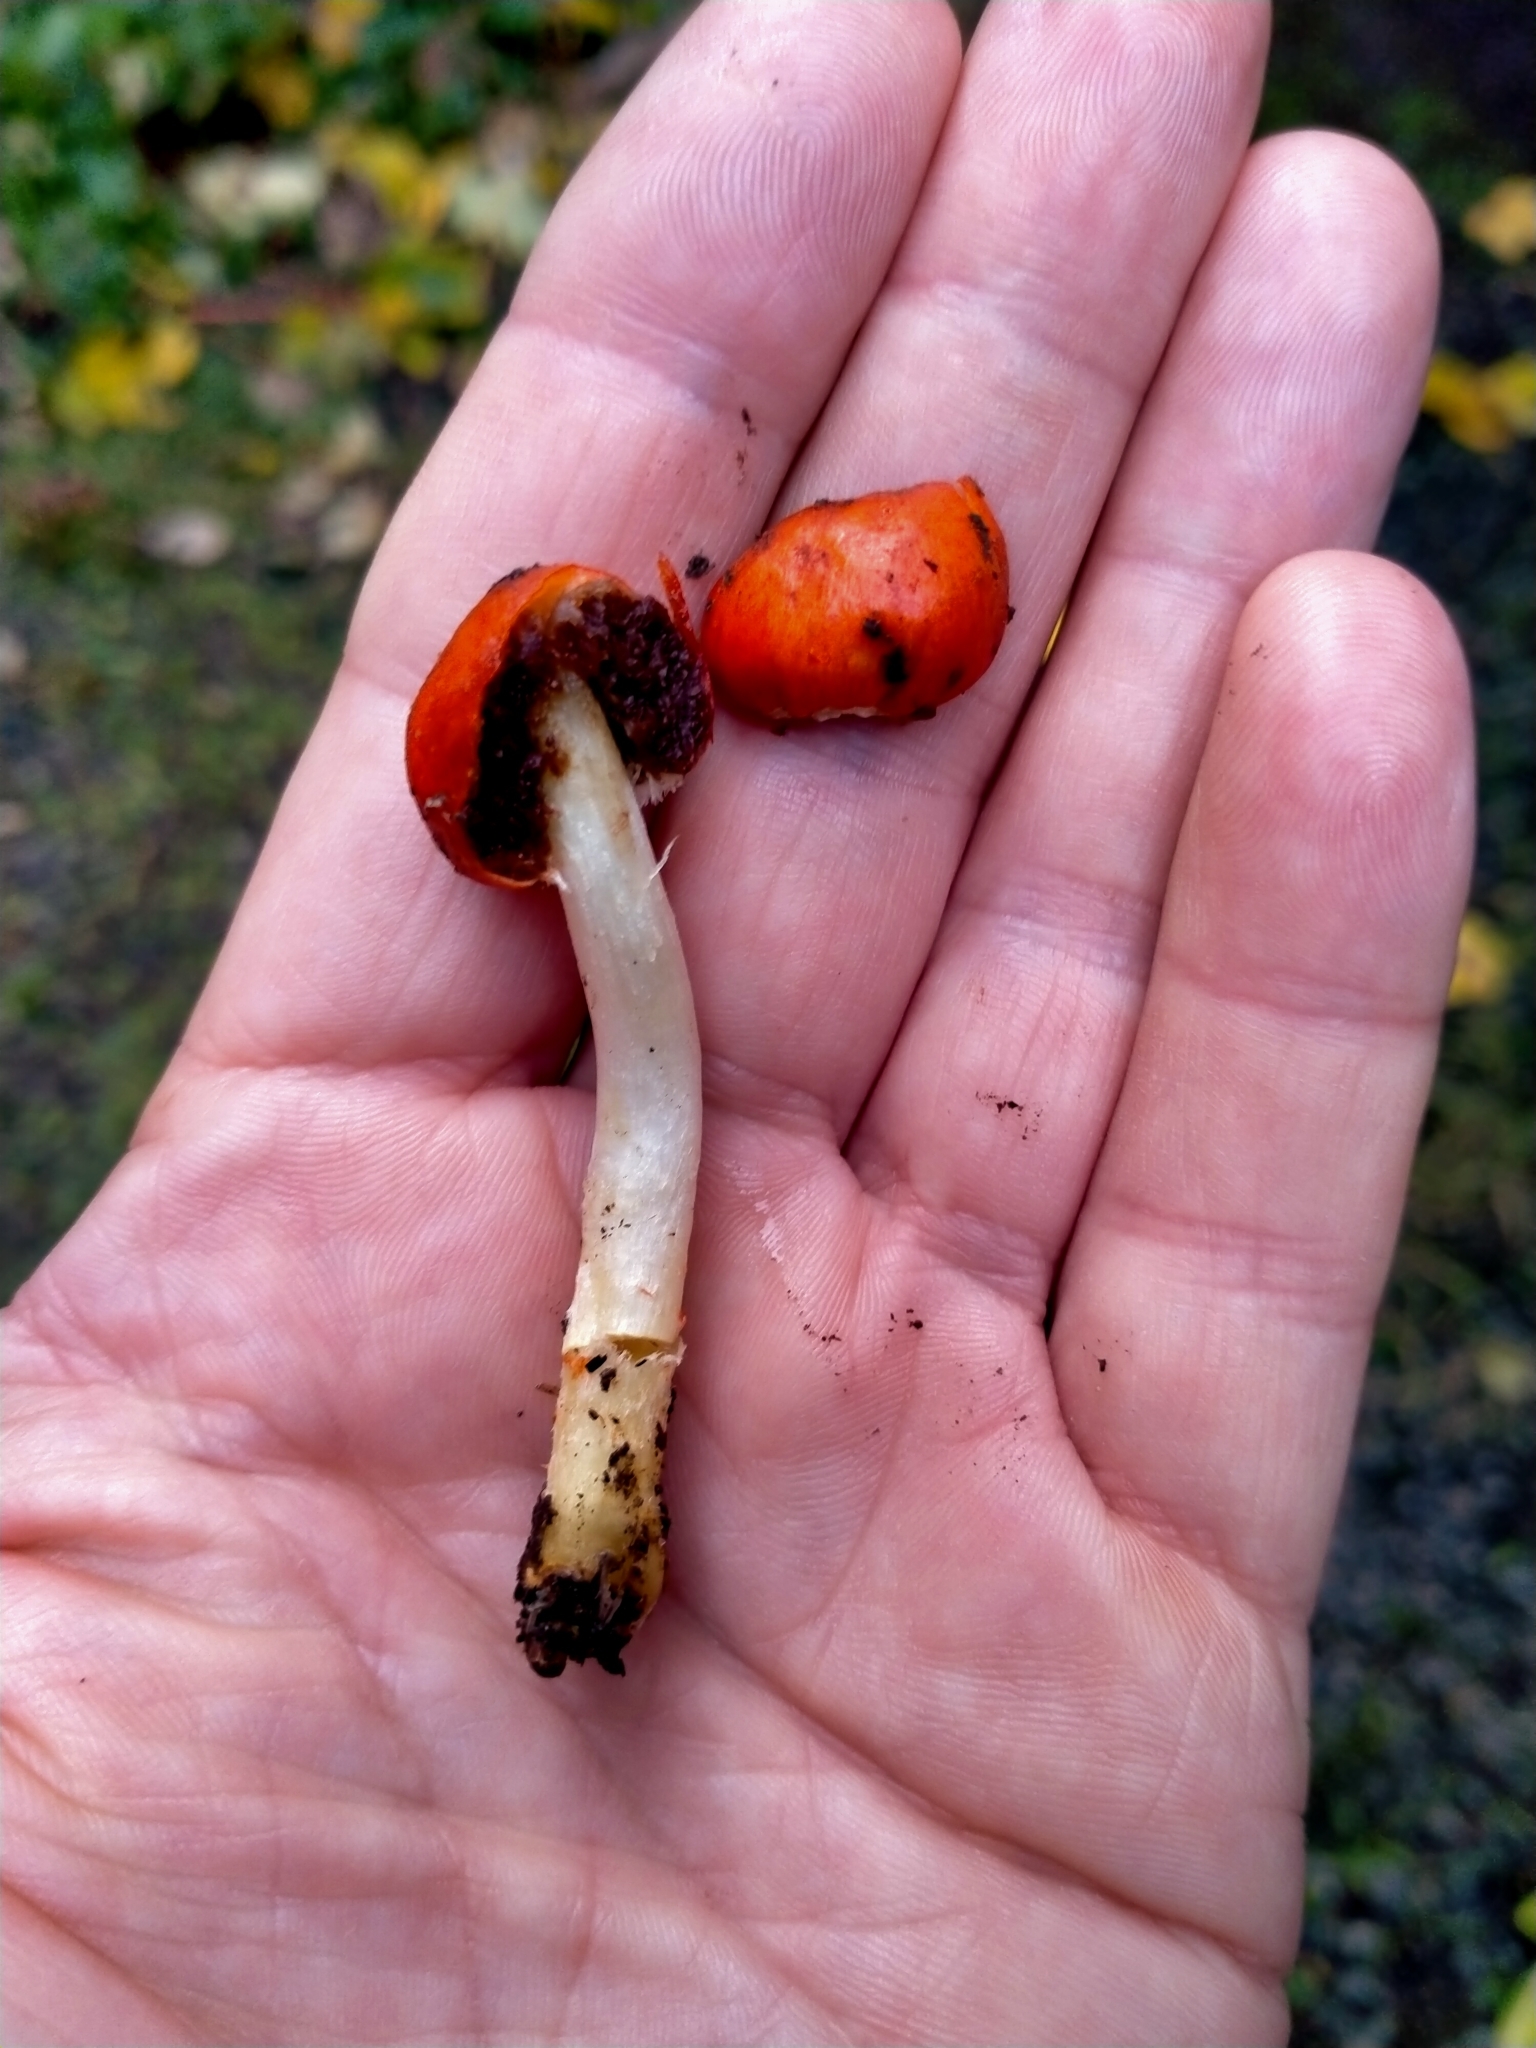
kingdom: Fungi
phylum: Basidiomycota
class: Agaricomycetes
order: Agaricales
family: Strophariaceae
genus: Leratiomyces
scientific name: Leratiomyces erythrocephalus
